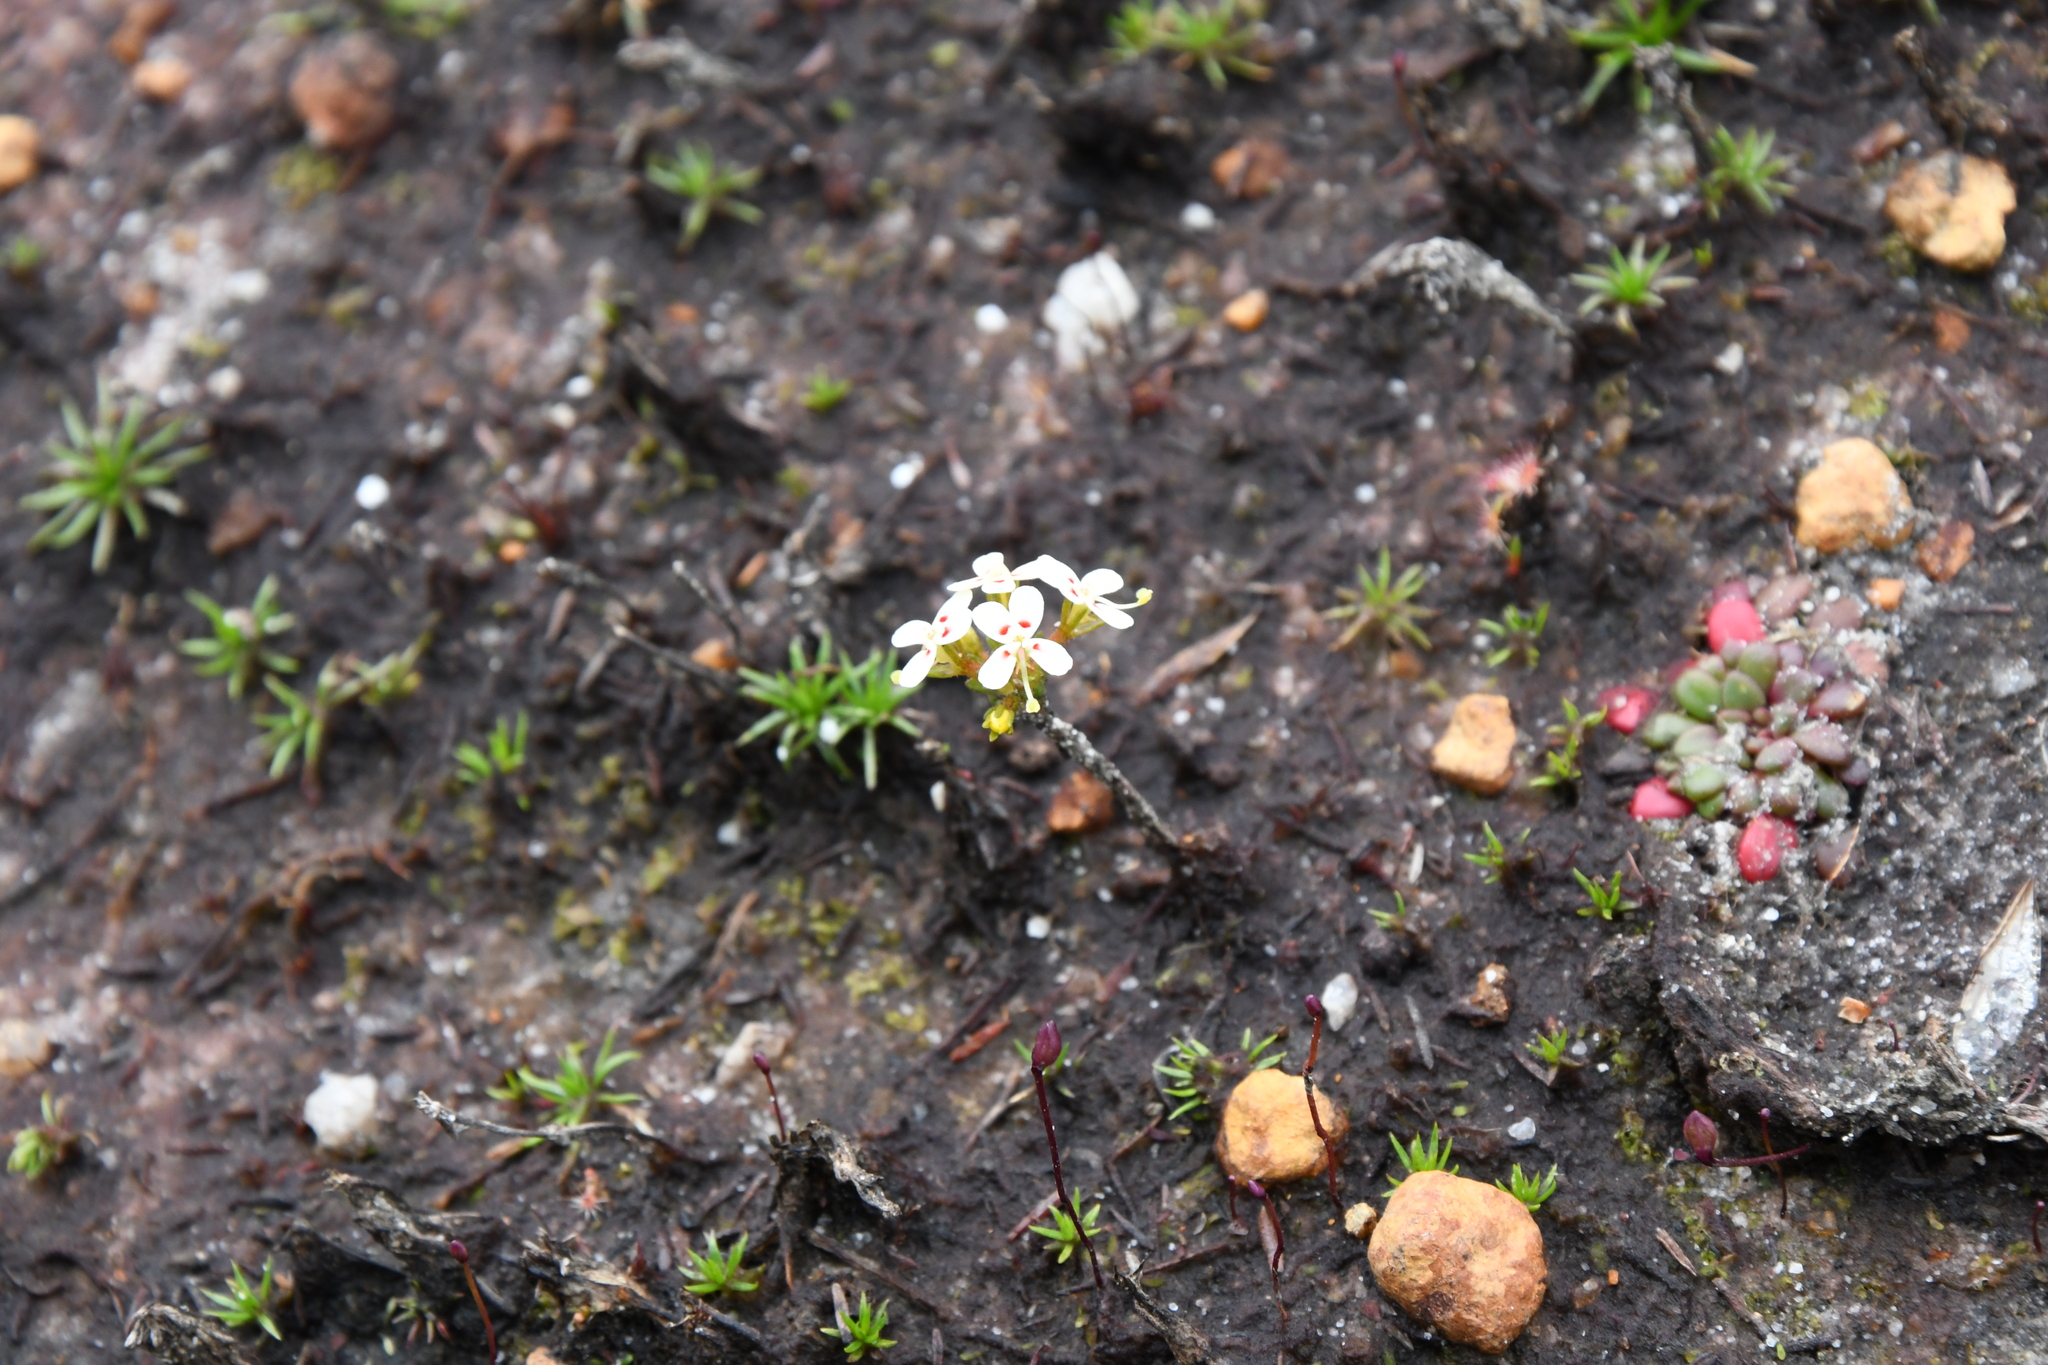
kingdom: Plantae
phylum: Tracheophyta
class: Magnoliopsida
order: Asterales
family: Stylidiaceae
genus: Stylidium
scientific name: Stylidium guttatum
